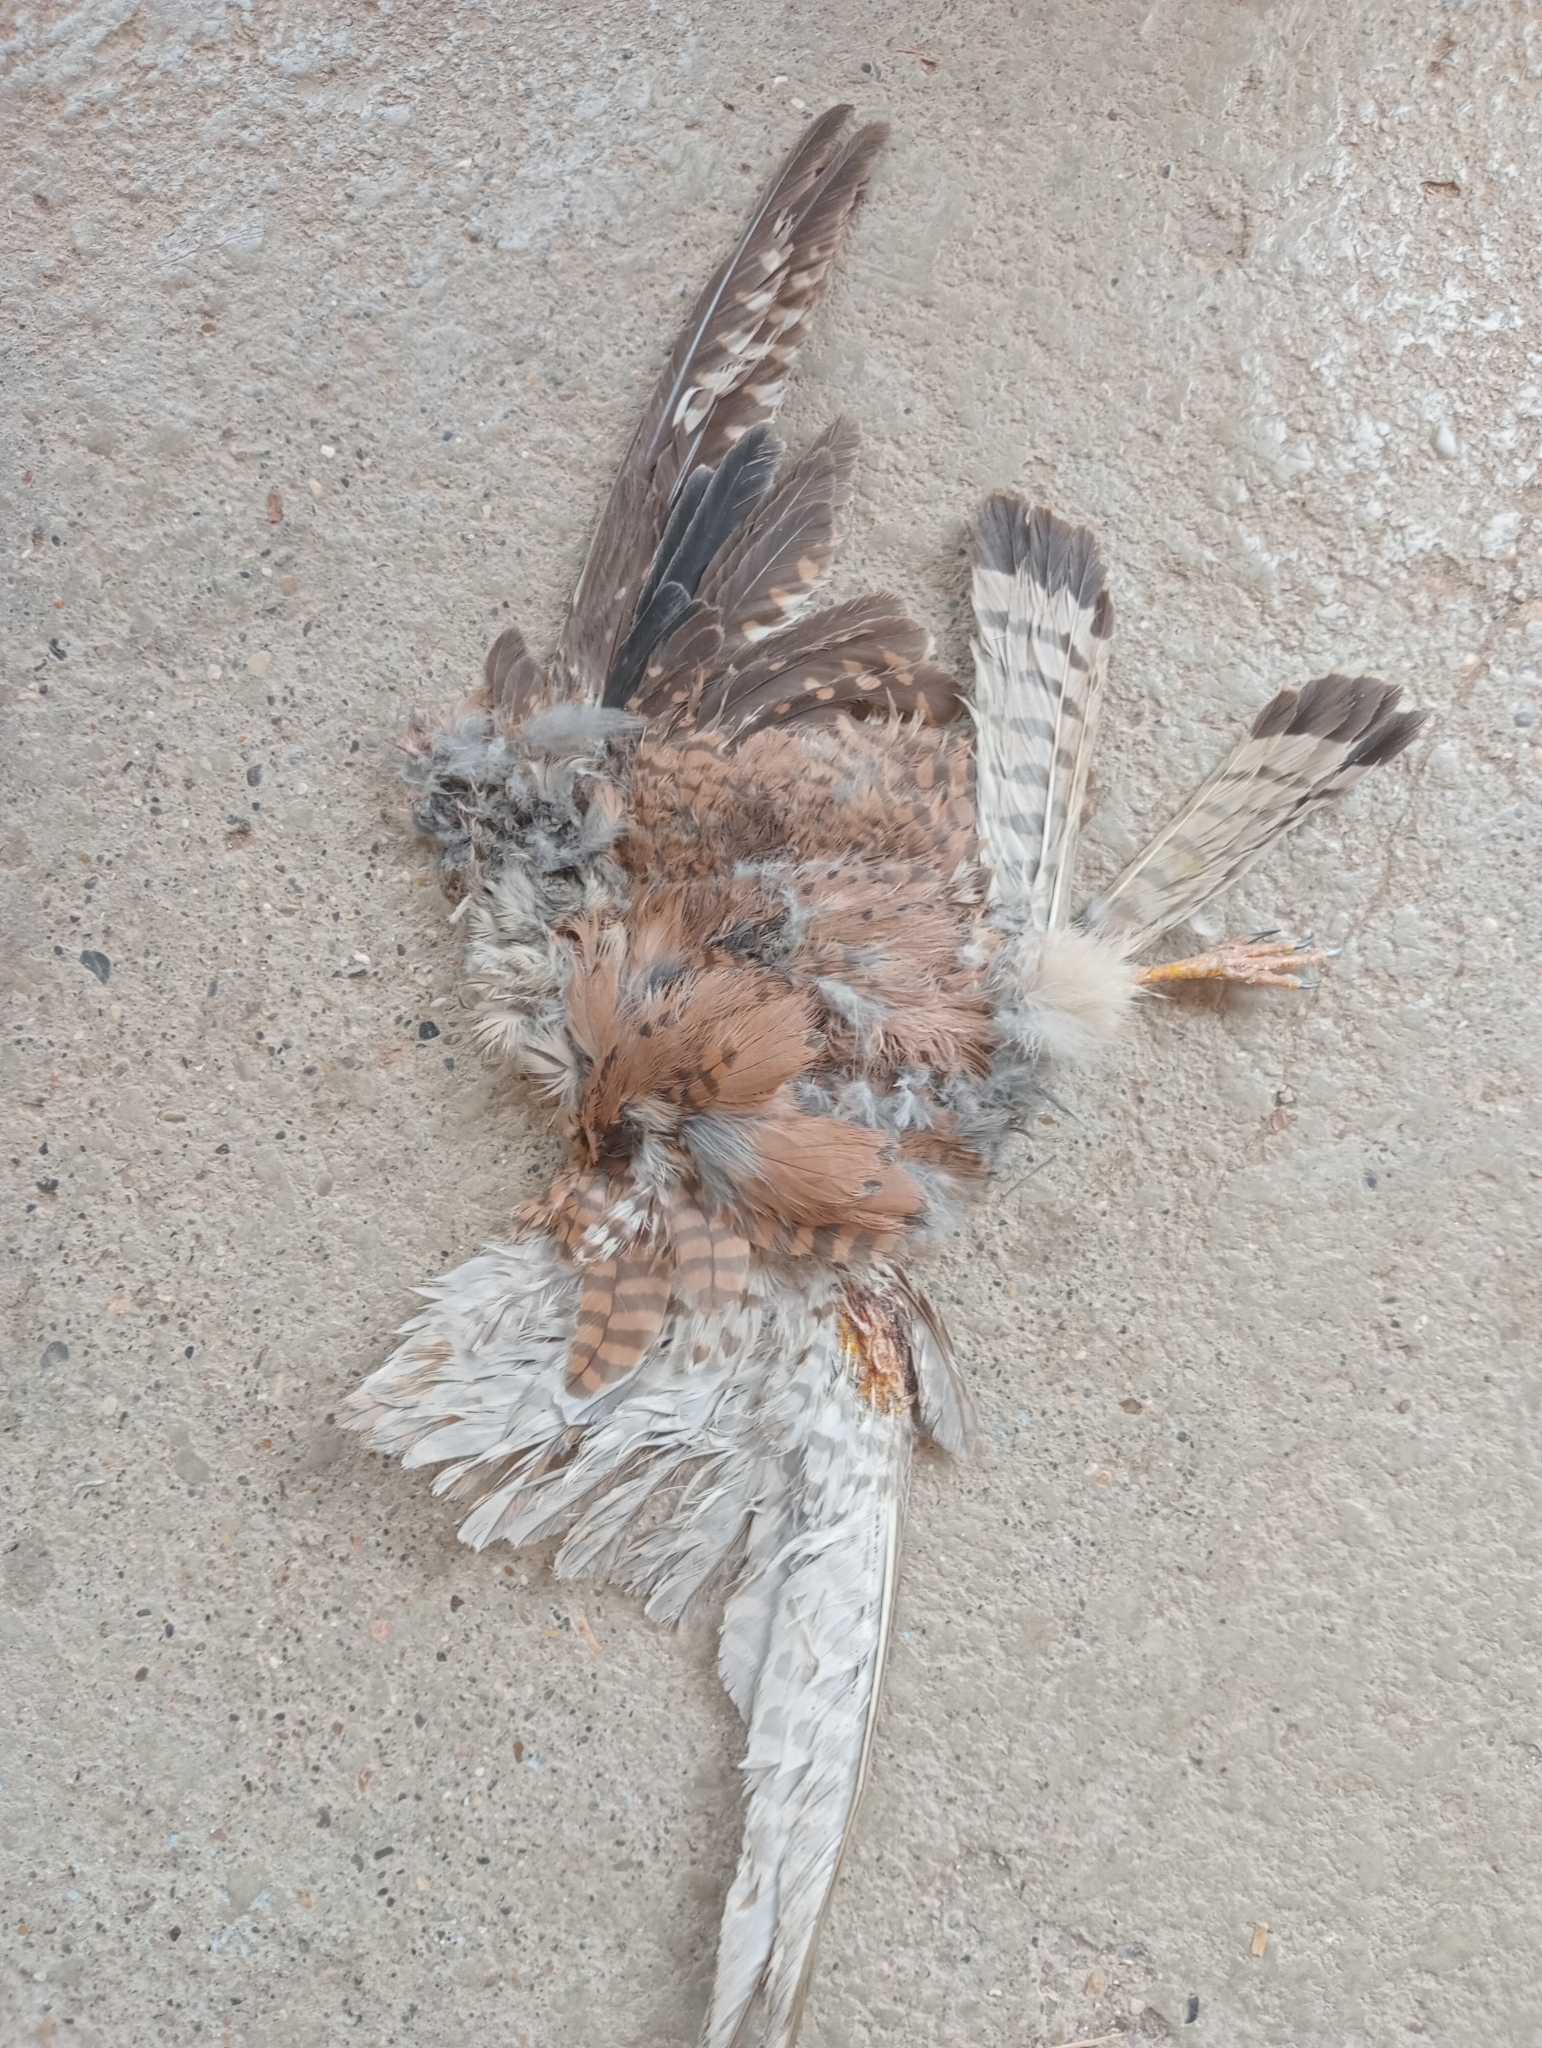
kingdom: Animalia
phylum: Chordata
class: Aves
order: Falconiformes
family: Falconidae
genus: Falco
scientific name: Falco tinnunculus
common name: Common kestrel
